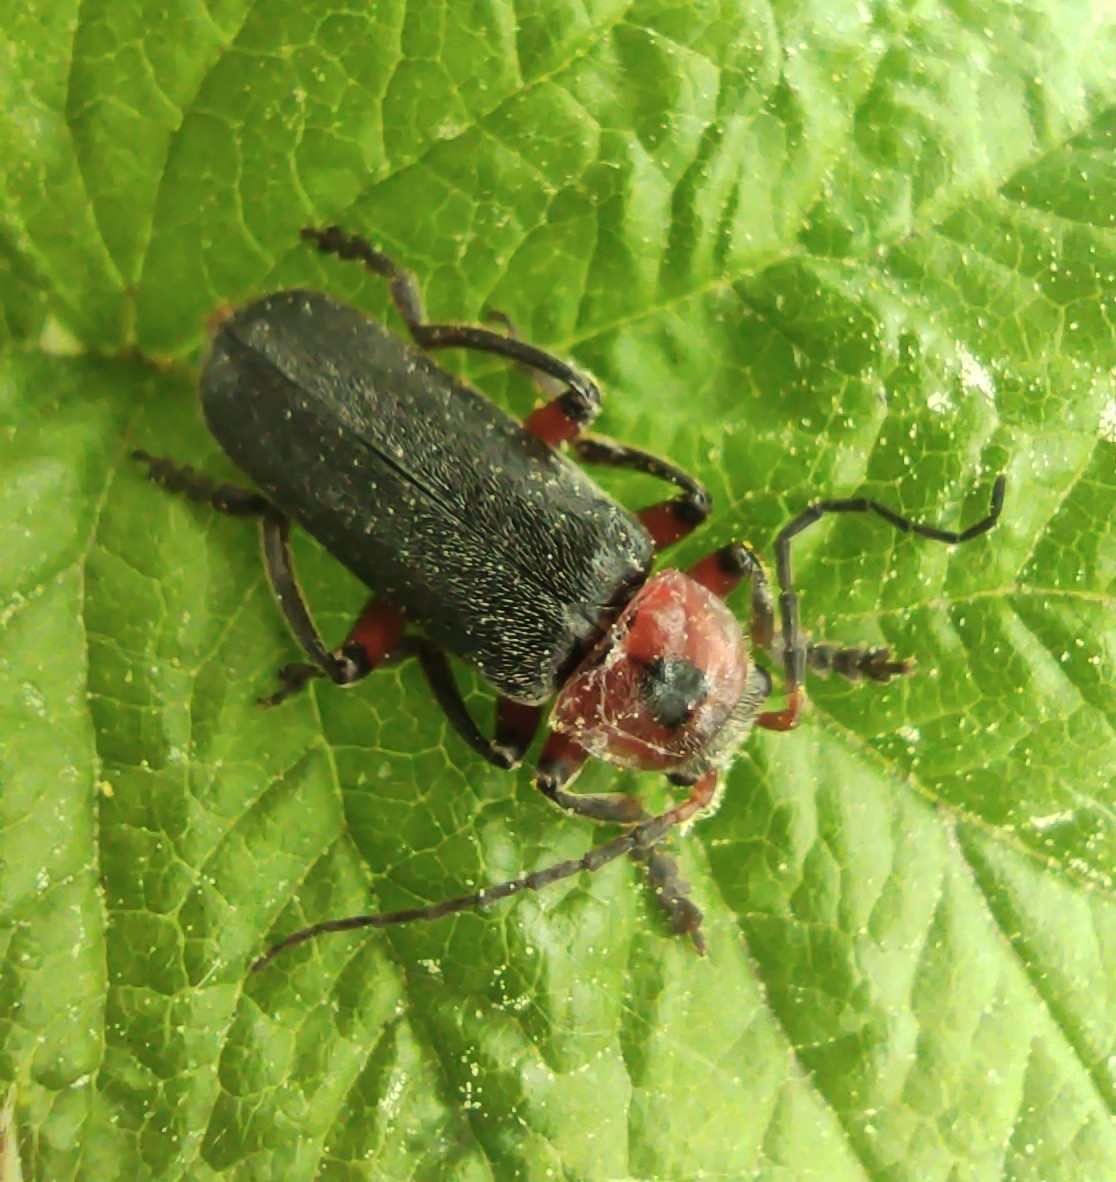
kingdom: Animalia
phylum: Arthropoda
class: Insecta
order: Coleoptera
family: Cantharidae
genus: Cantharis
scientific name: Cantharis rustica
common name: Soldier beetle
